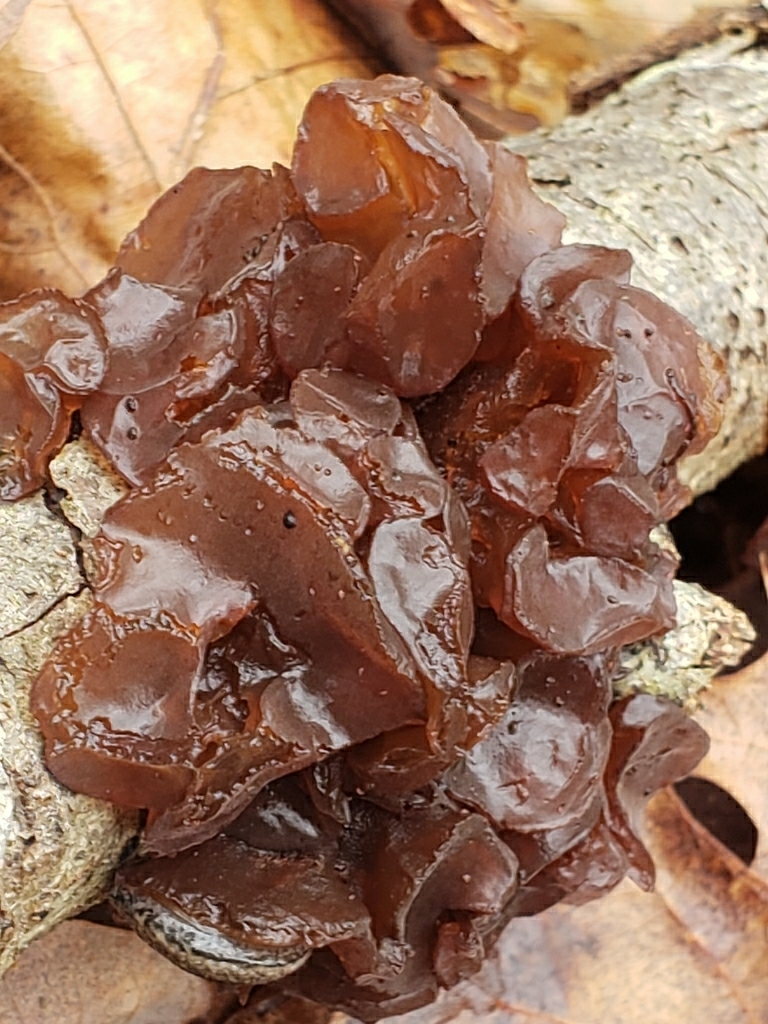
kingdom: Fungi
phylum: Basidiomycota
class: Agaricomycetes
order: Auriculariales
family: Auriculariaceae
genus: Exidia
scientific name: Exidia
